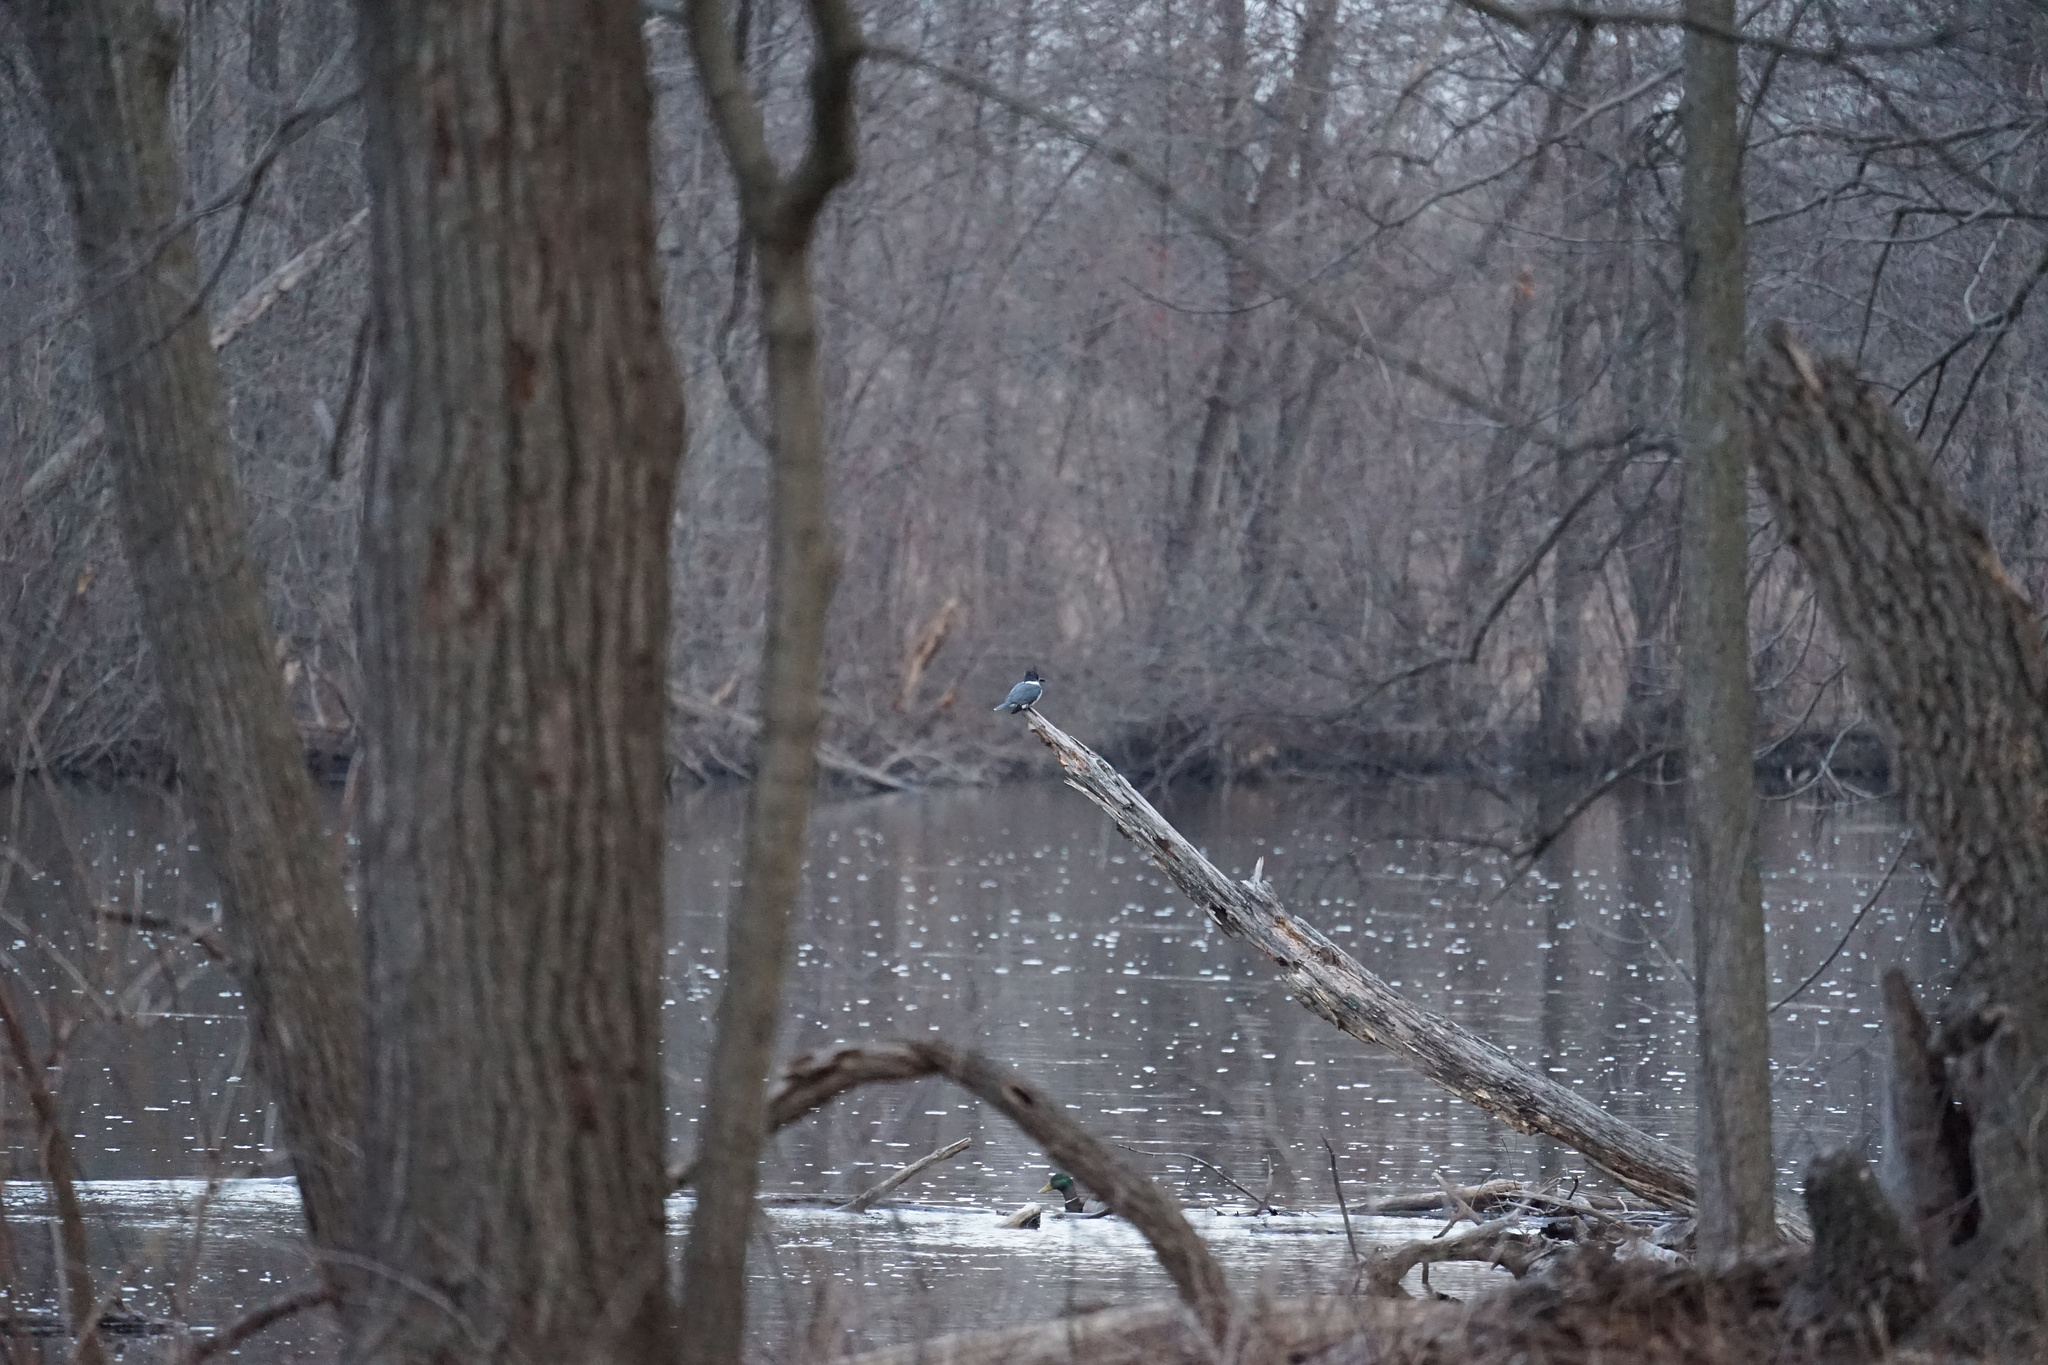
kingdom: Animalia
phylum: Chordata
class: Aves
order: Coraciiformes
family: Alcedinidae
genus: Megaceryle
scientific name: Megaceryle alcyon
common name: Belted kingfisher
